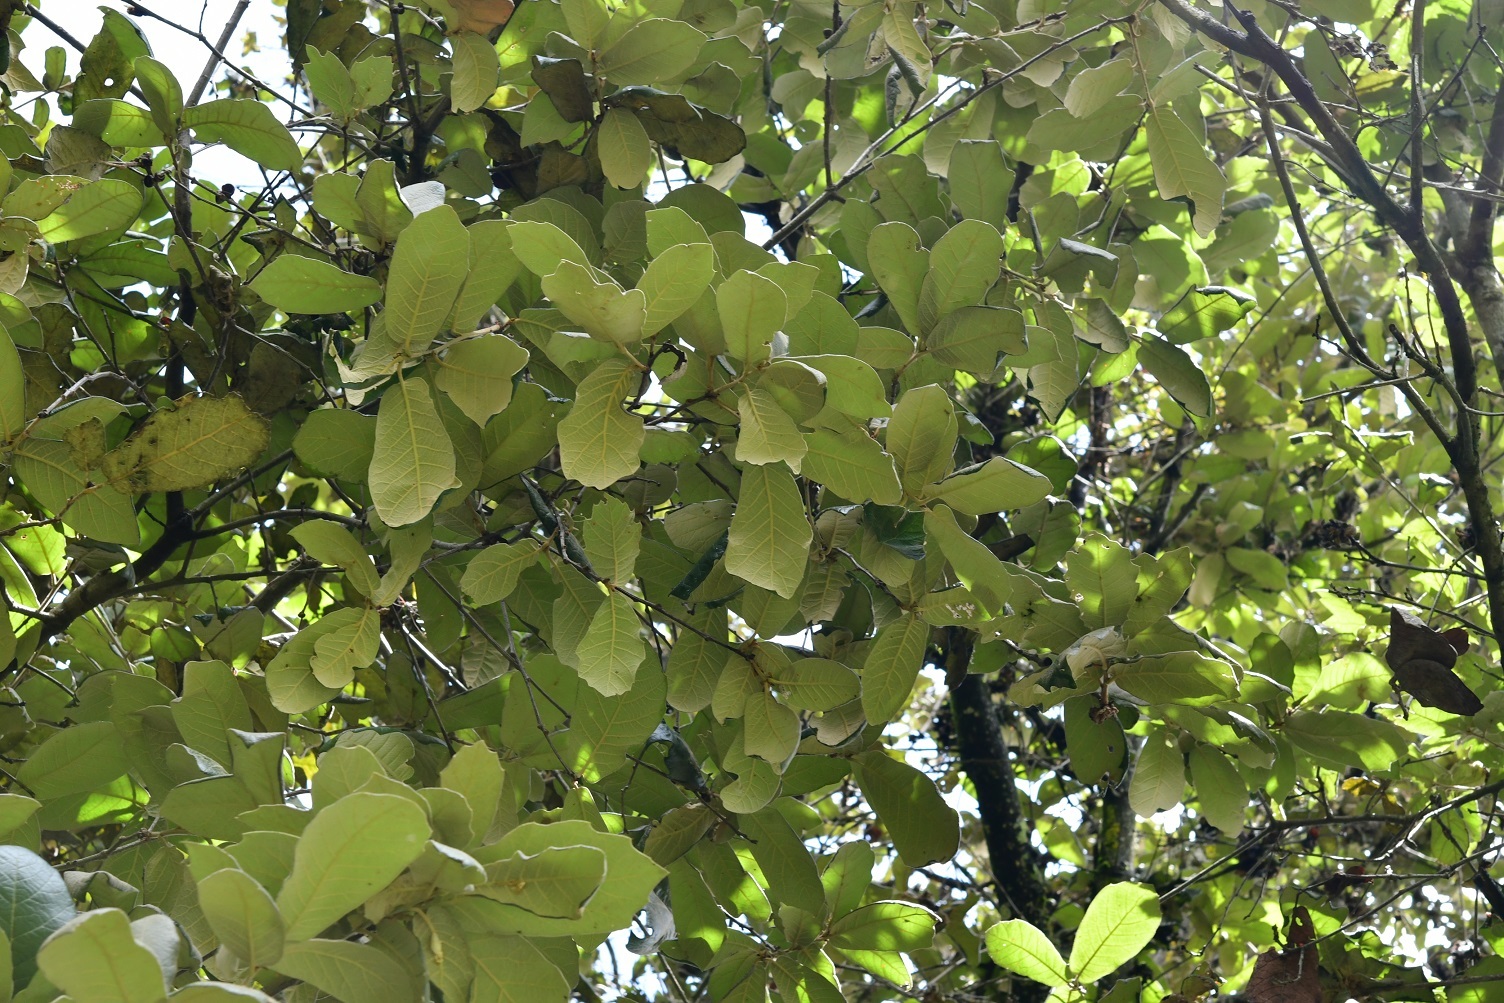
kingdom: Plantae
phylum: Tracheophyta
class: Magnoliopsida
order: Fagales
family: Fagaceae
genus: Quercus
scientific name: Quercus crassifolia
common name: Leather leaf mexican oak
